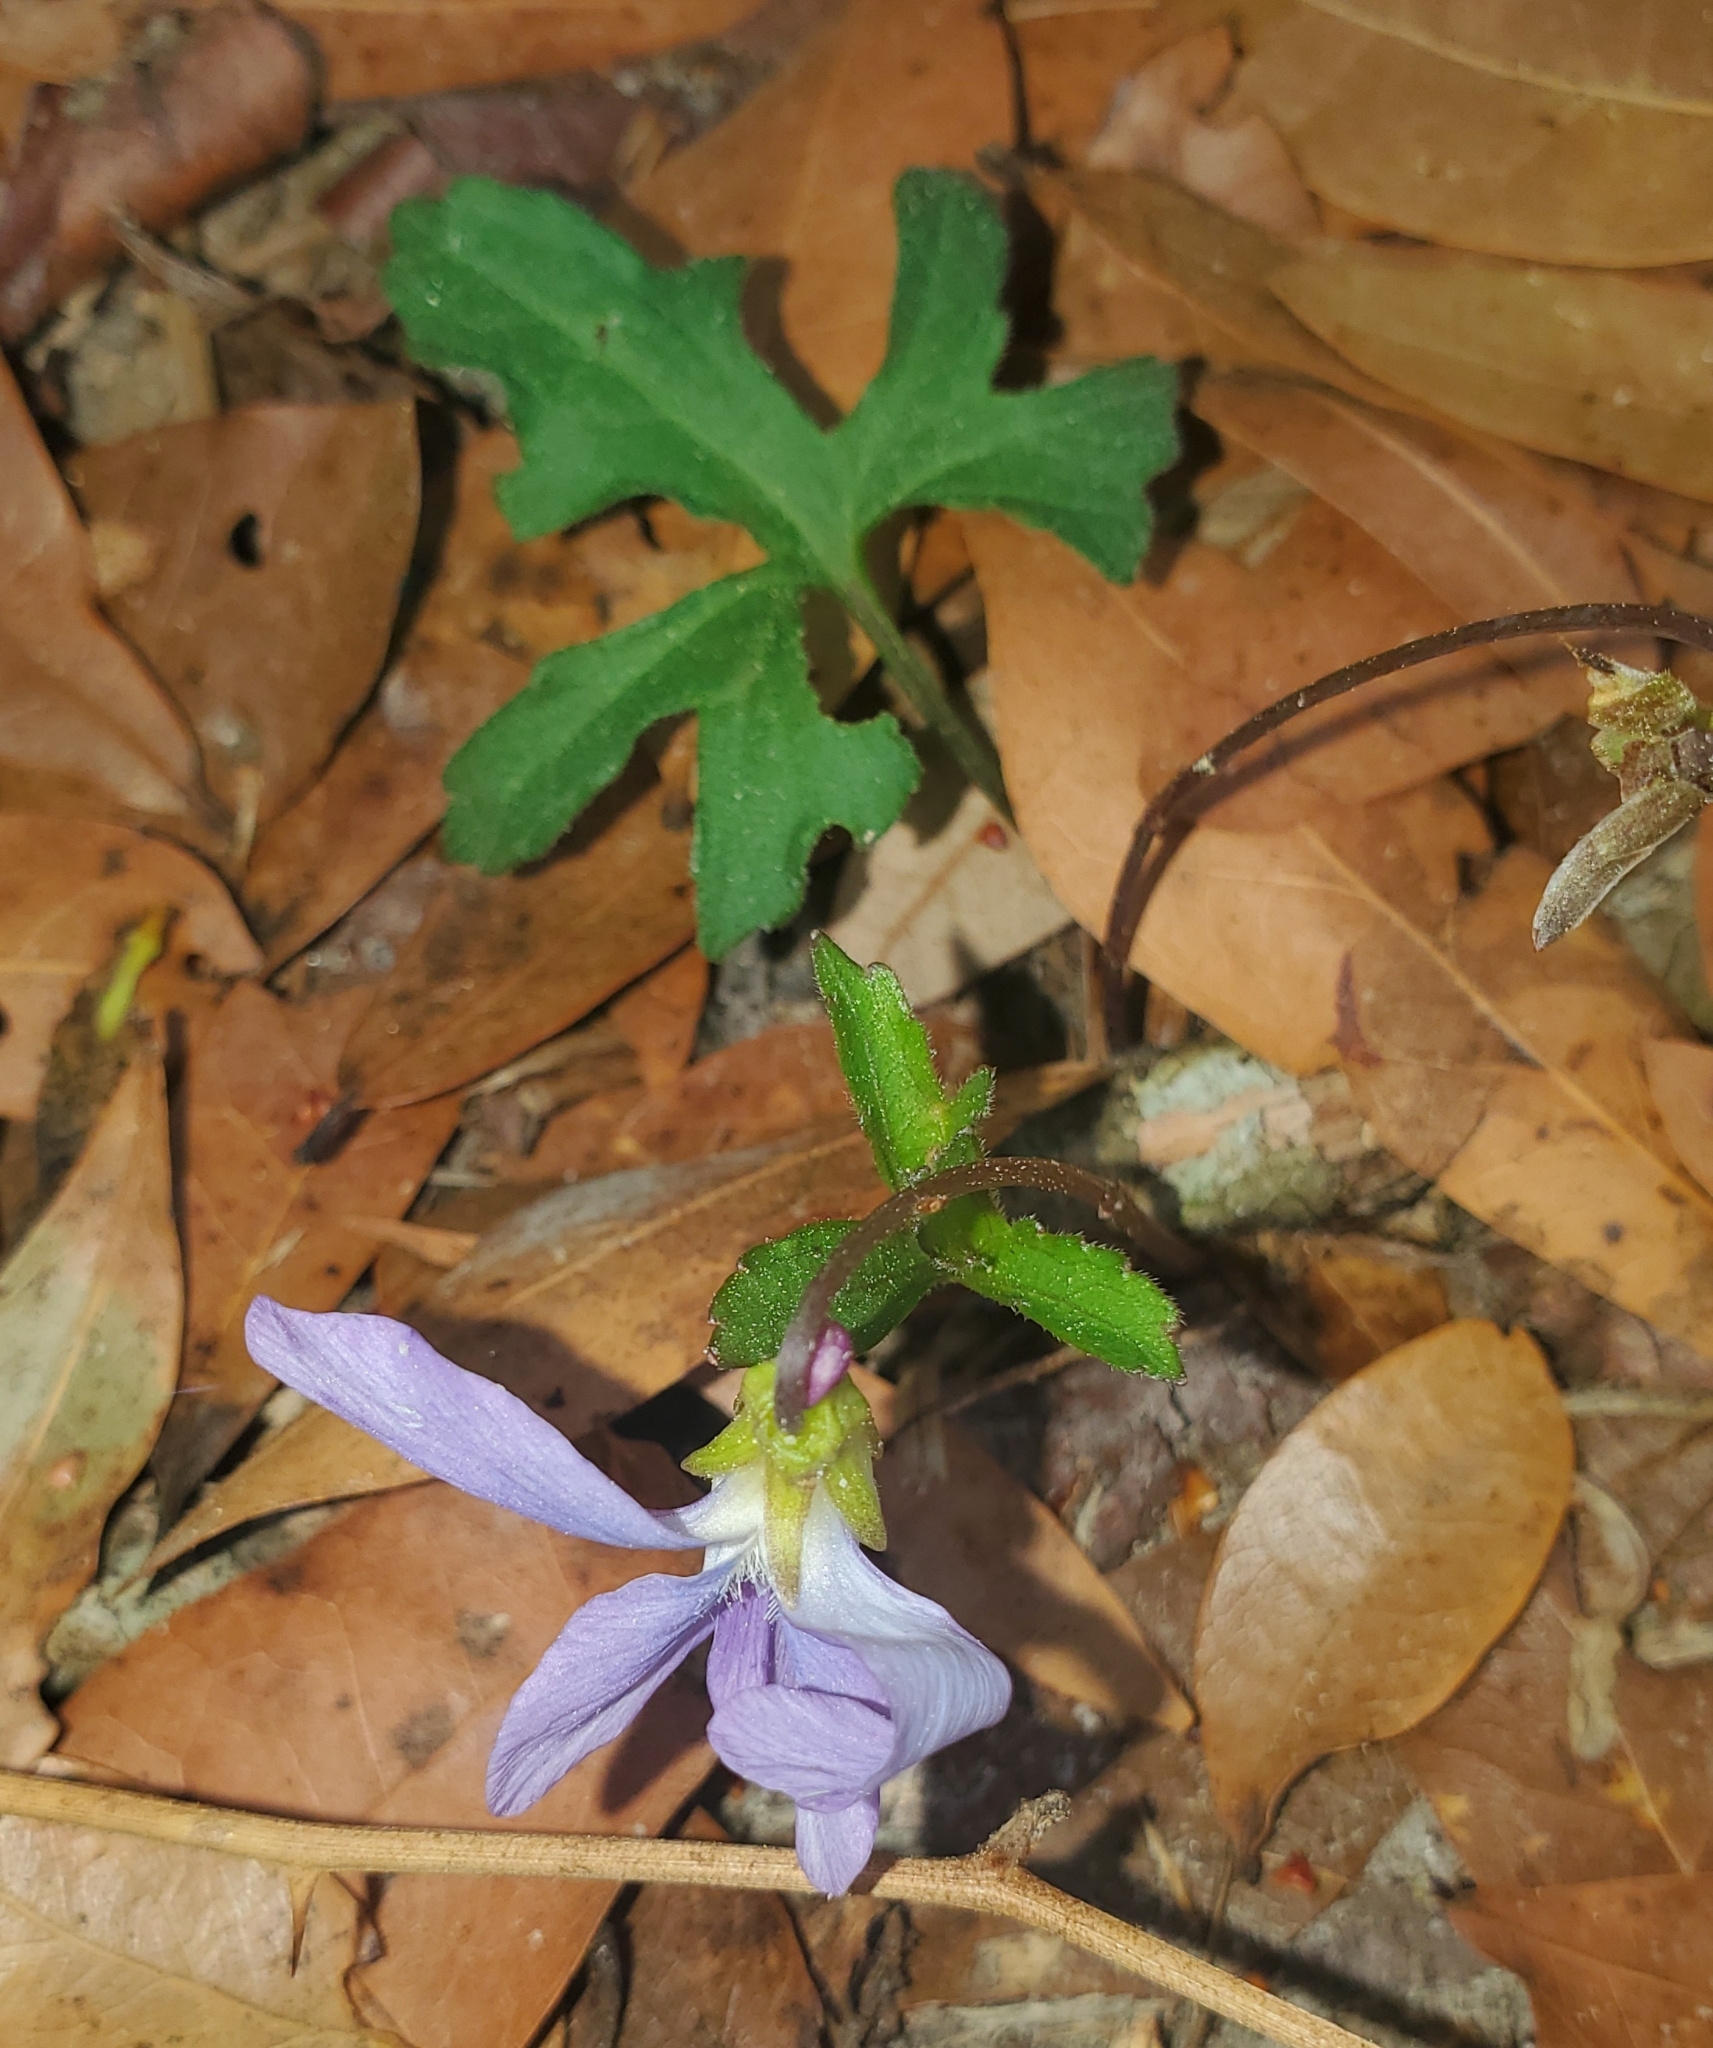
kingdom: Plantae
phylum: Tracheophyta
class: Magnoliopsida
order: Malpighiales
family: Violaceae
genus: Viola
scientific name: Viola palmata
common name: Early blue violet
